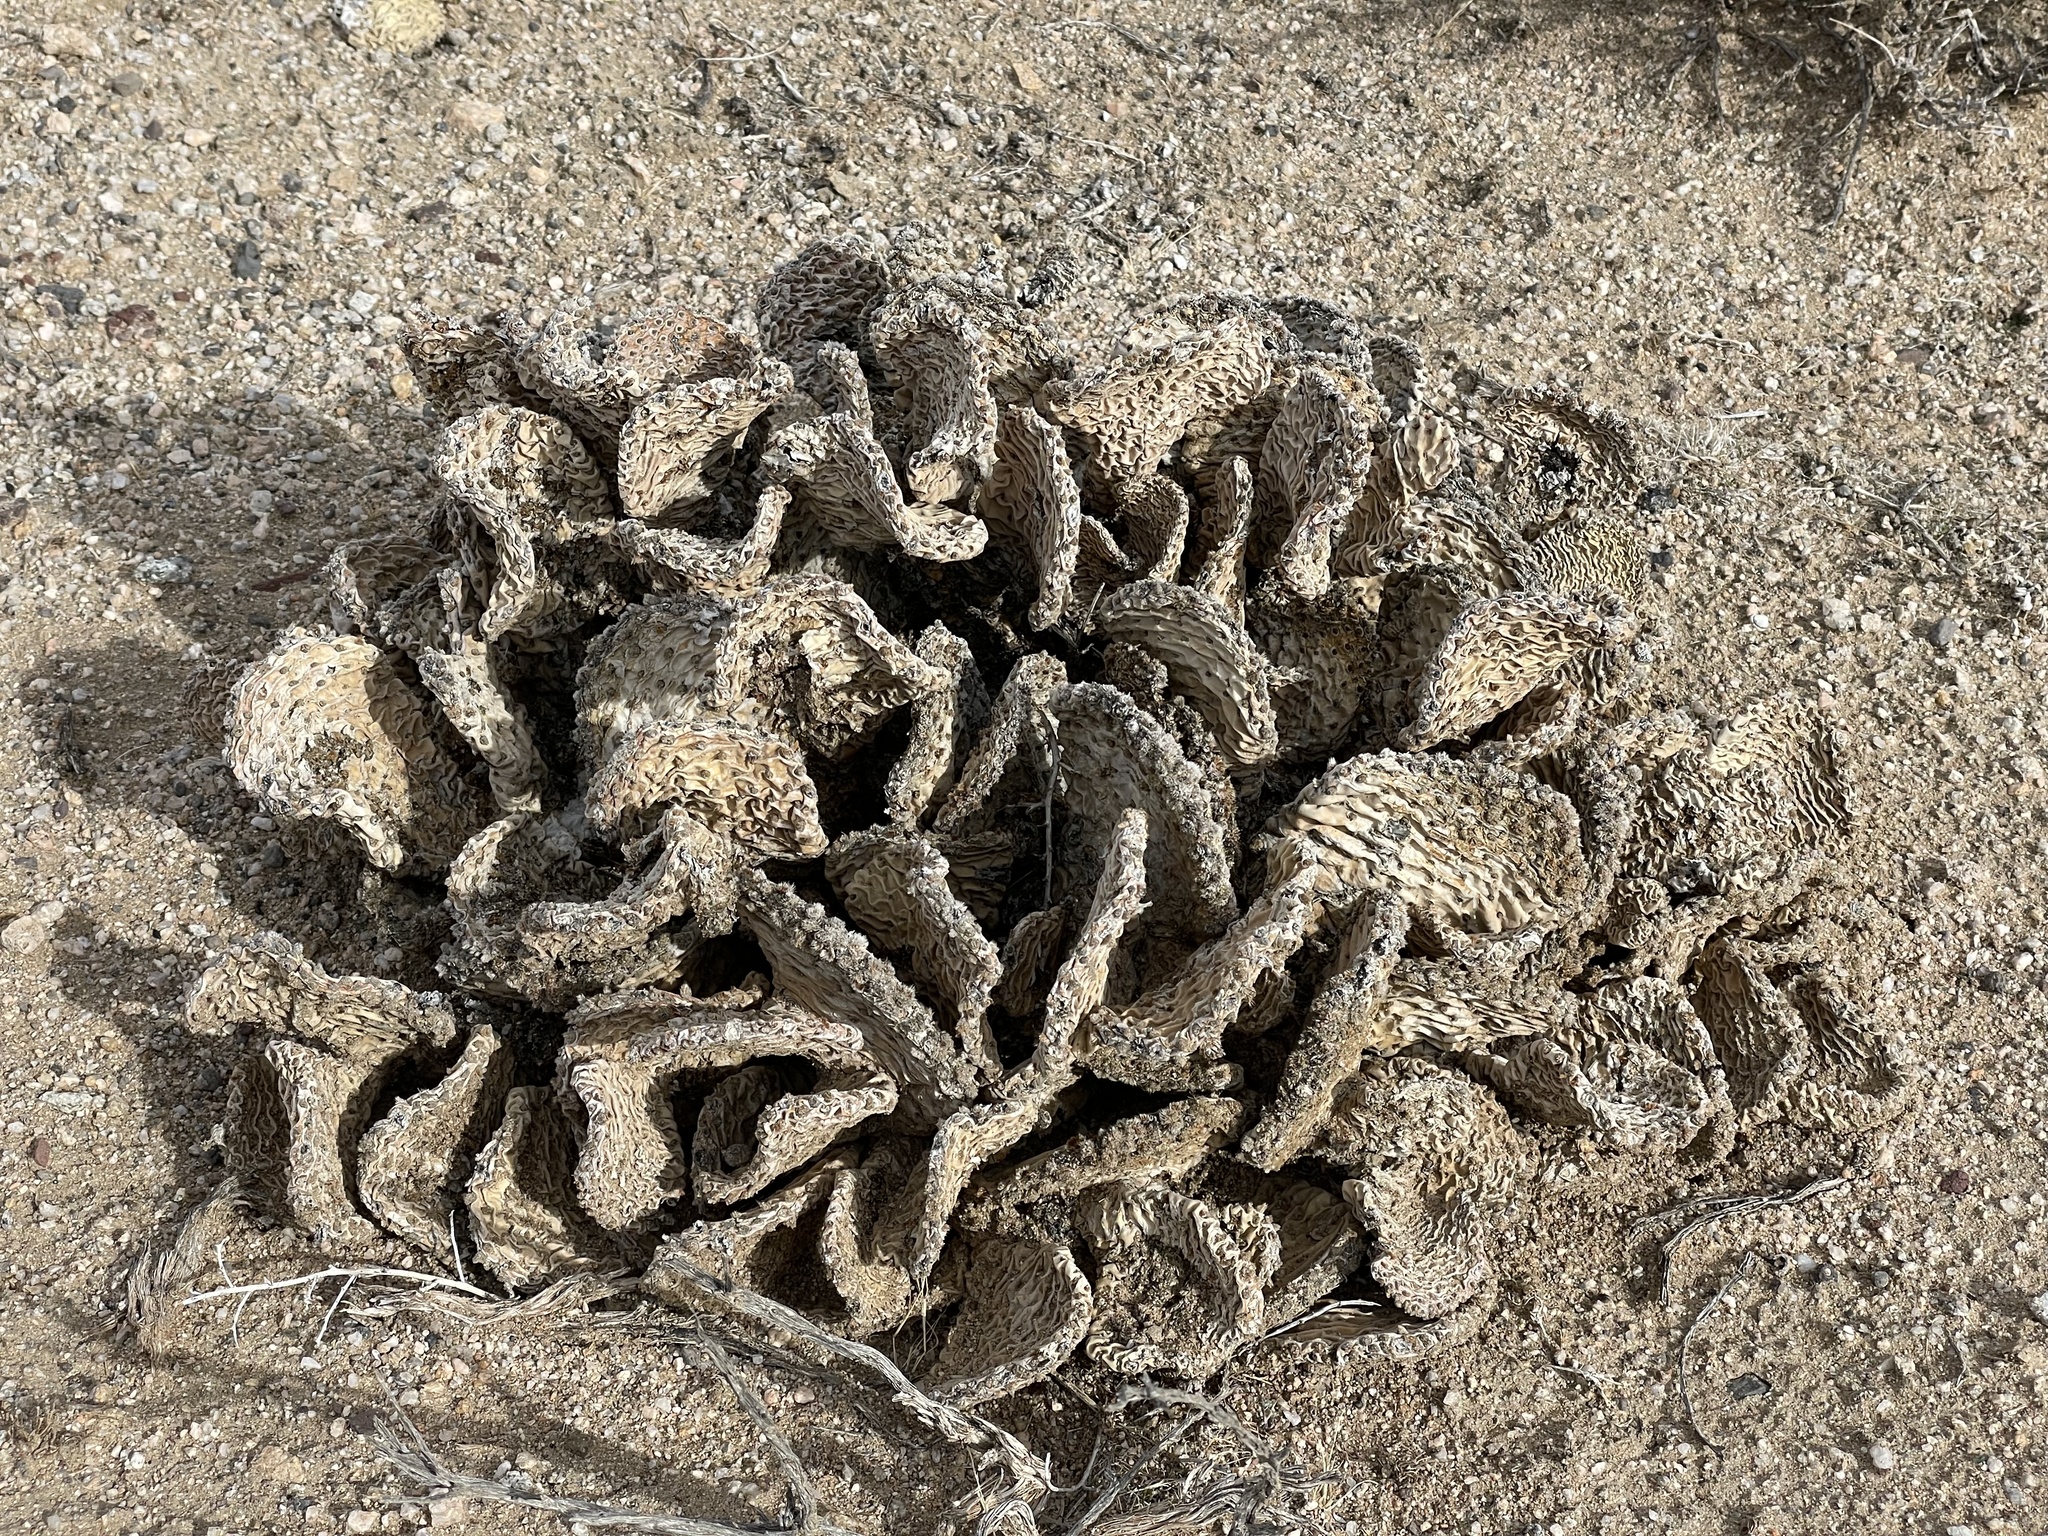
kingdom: Plantae
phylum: Tracheophyta
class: Magnoliopsida
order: Caryophyllales
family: Cactaceae
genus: Opuntia
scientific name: Opuntia basilaris
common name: Beavertail prickly-pear
